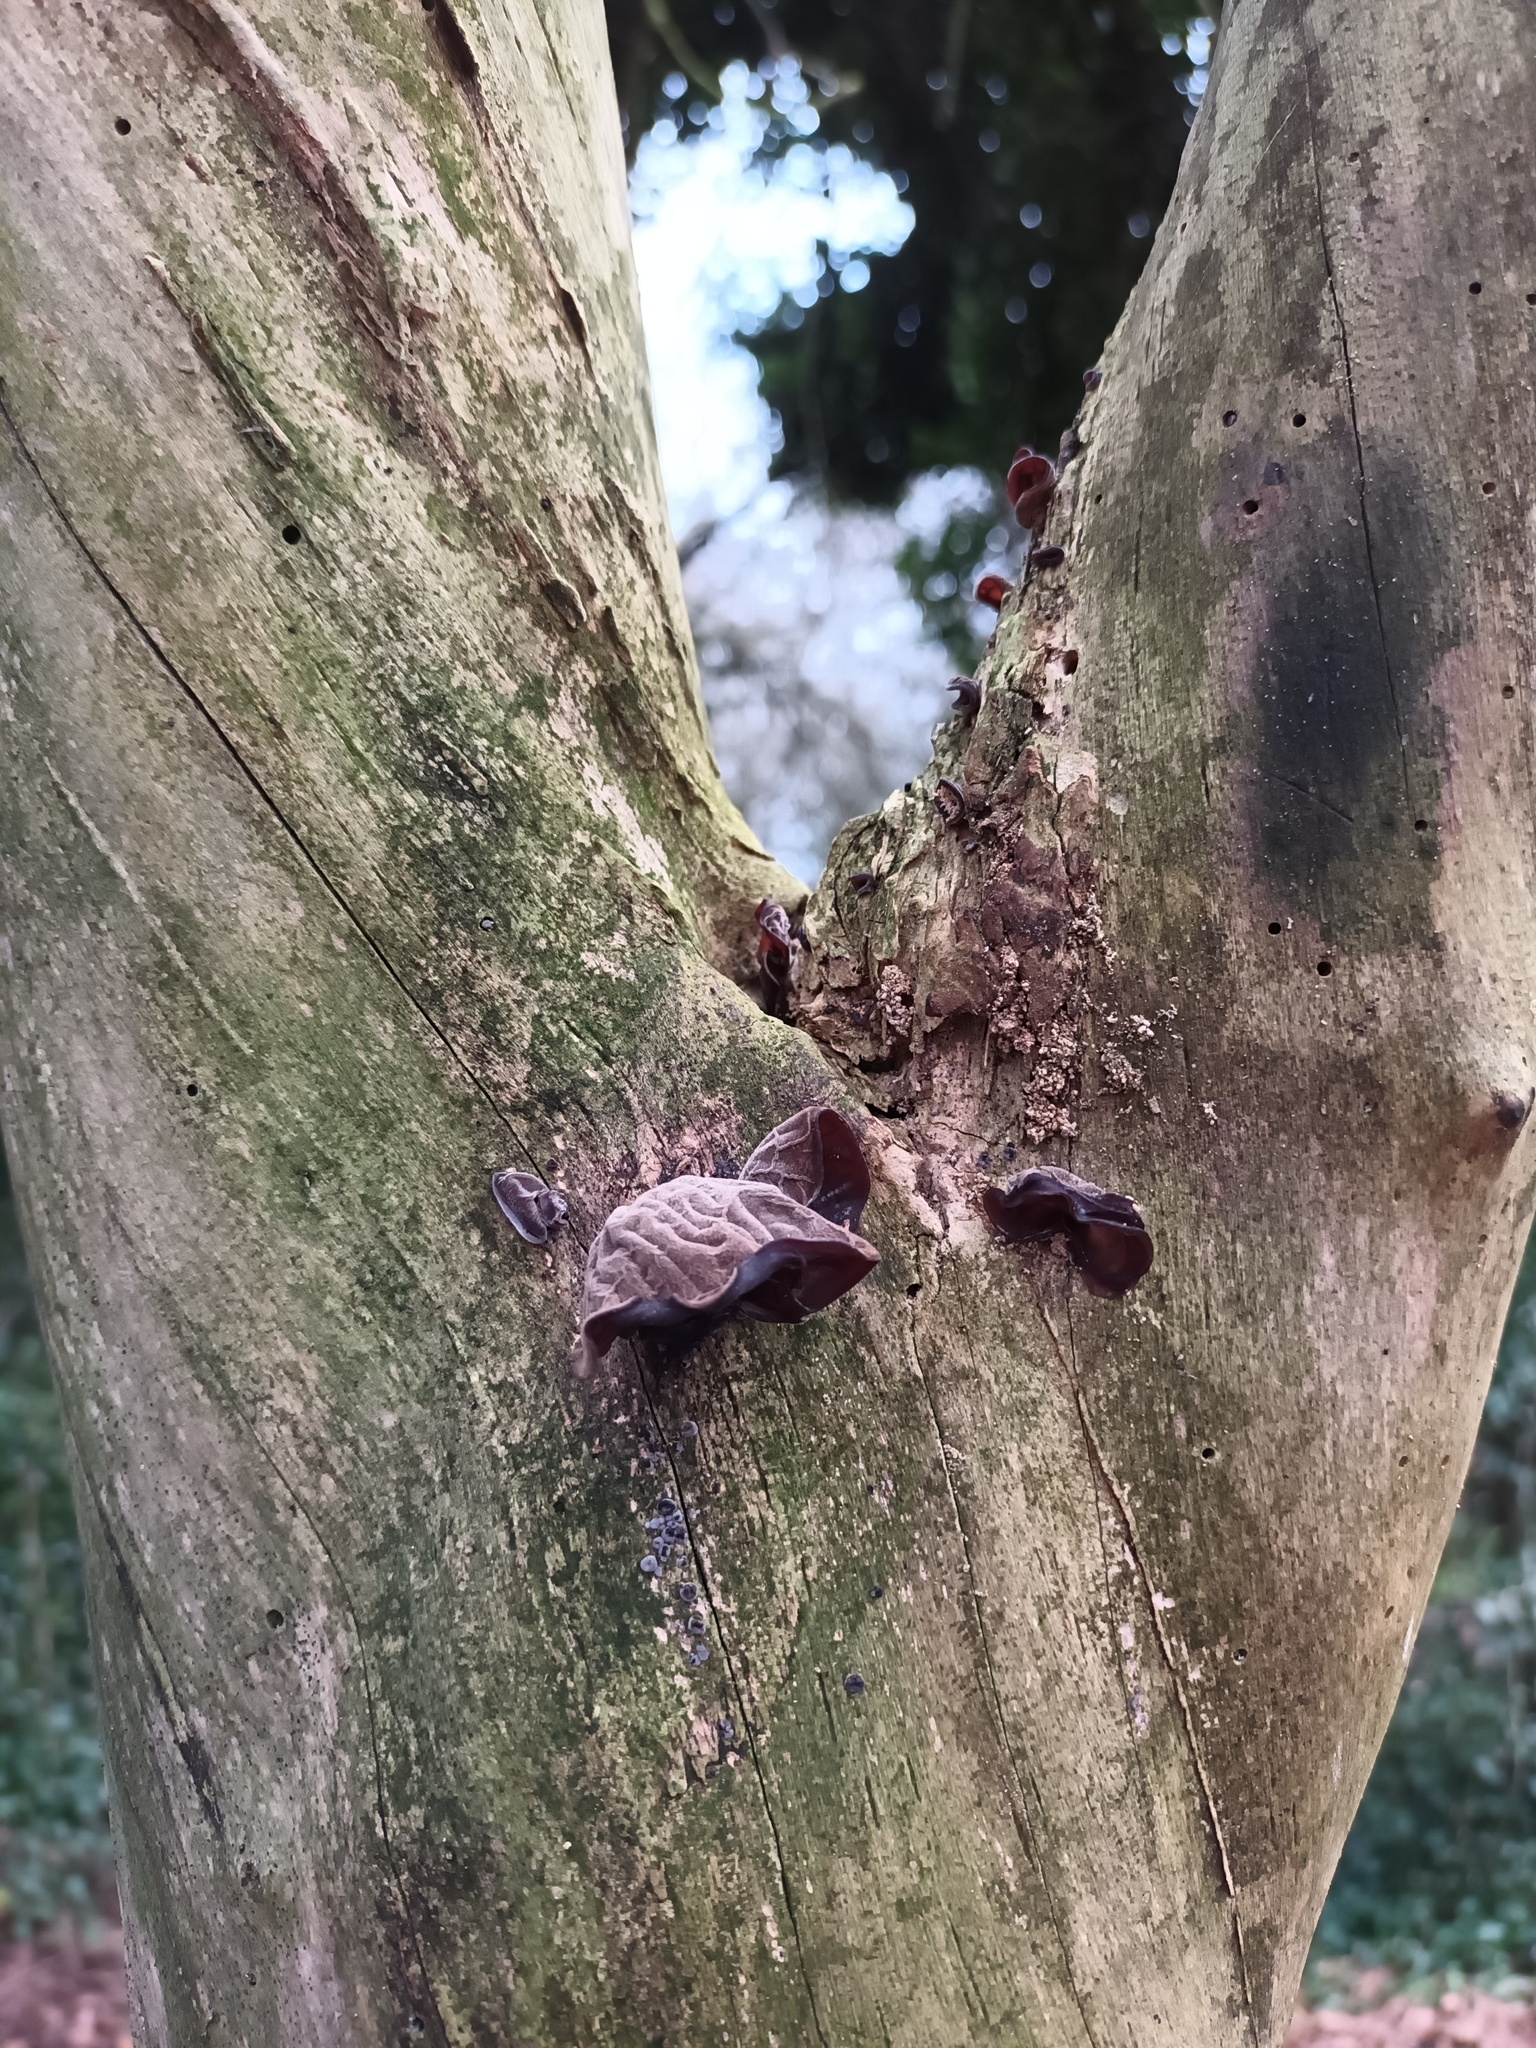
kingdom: Fungi
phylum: Basidiomycota
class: Agaricomycetes
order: Auriculariales
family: Auriculariaceae
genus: Auricularia
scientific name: Auricularia auricula-judae
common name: Jelly ear
